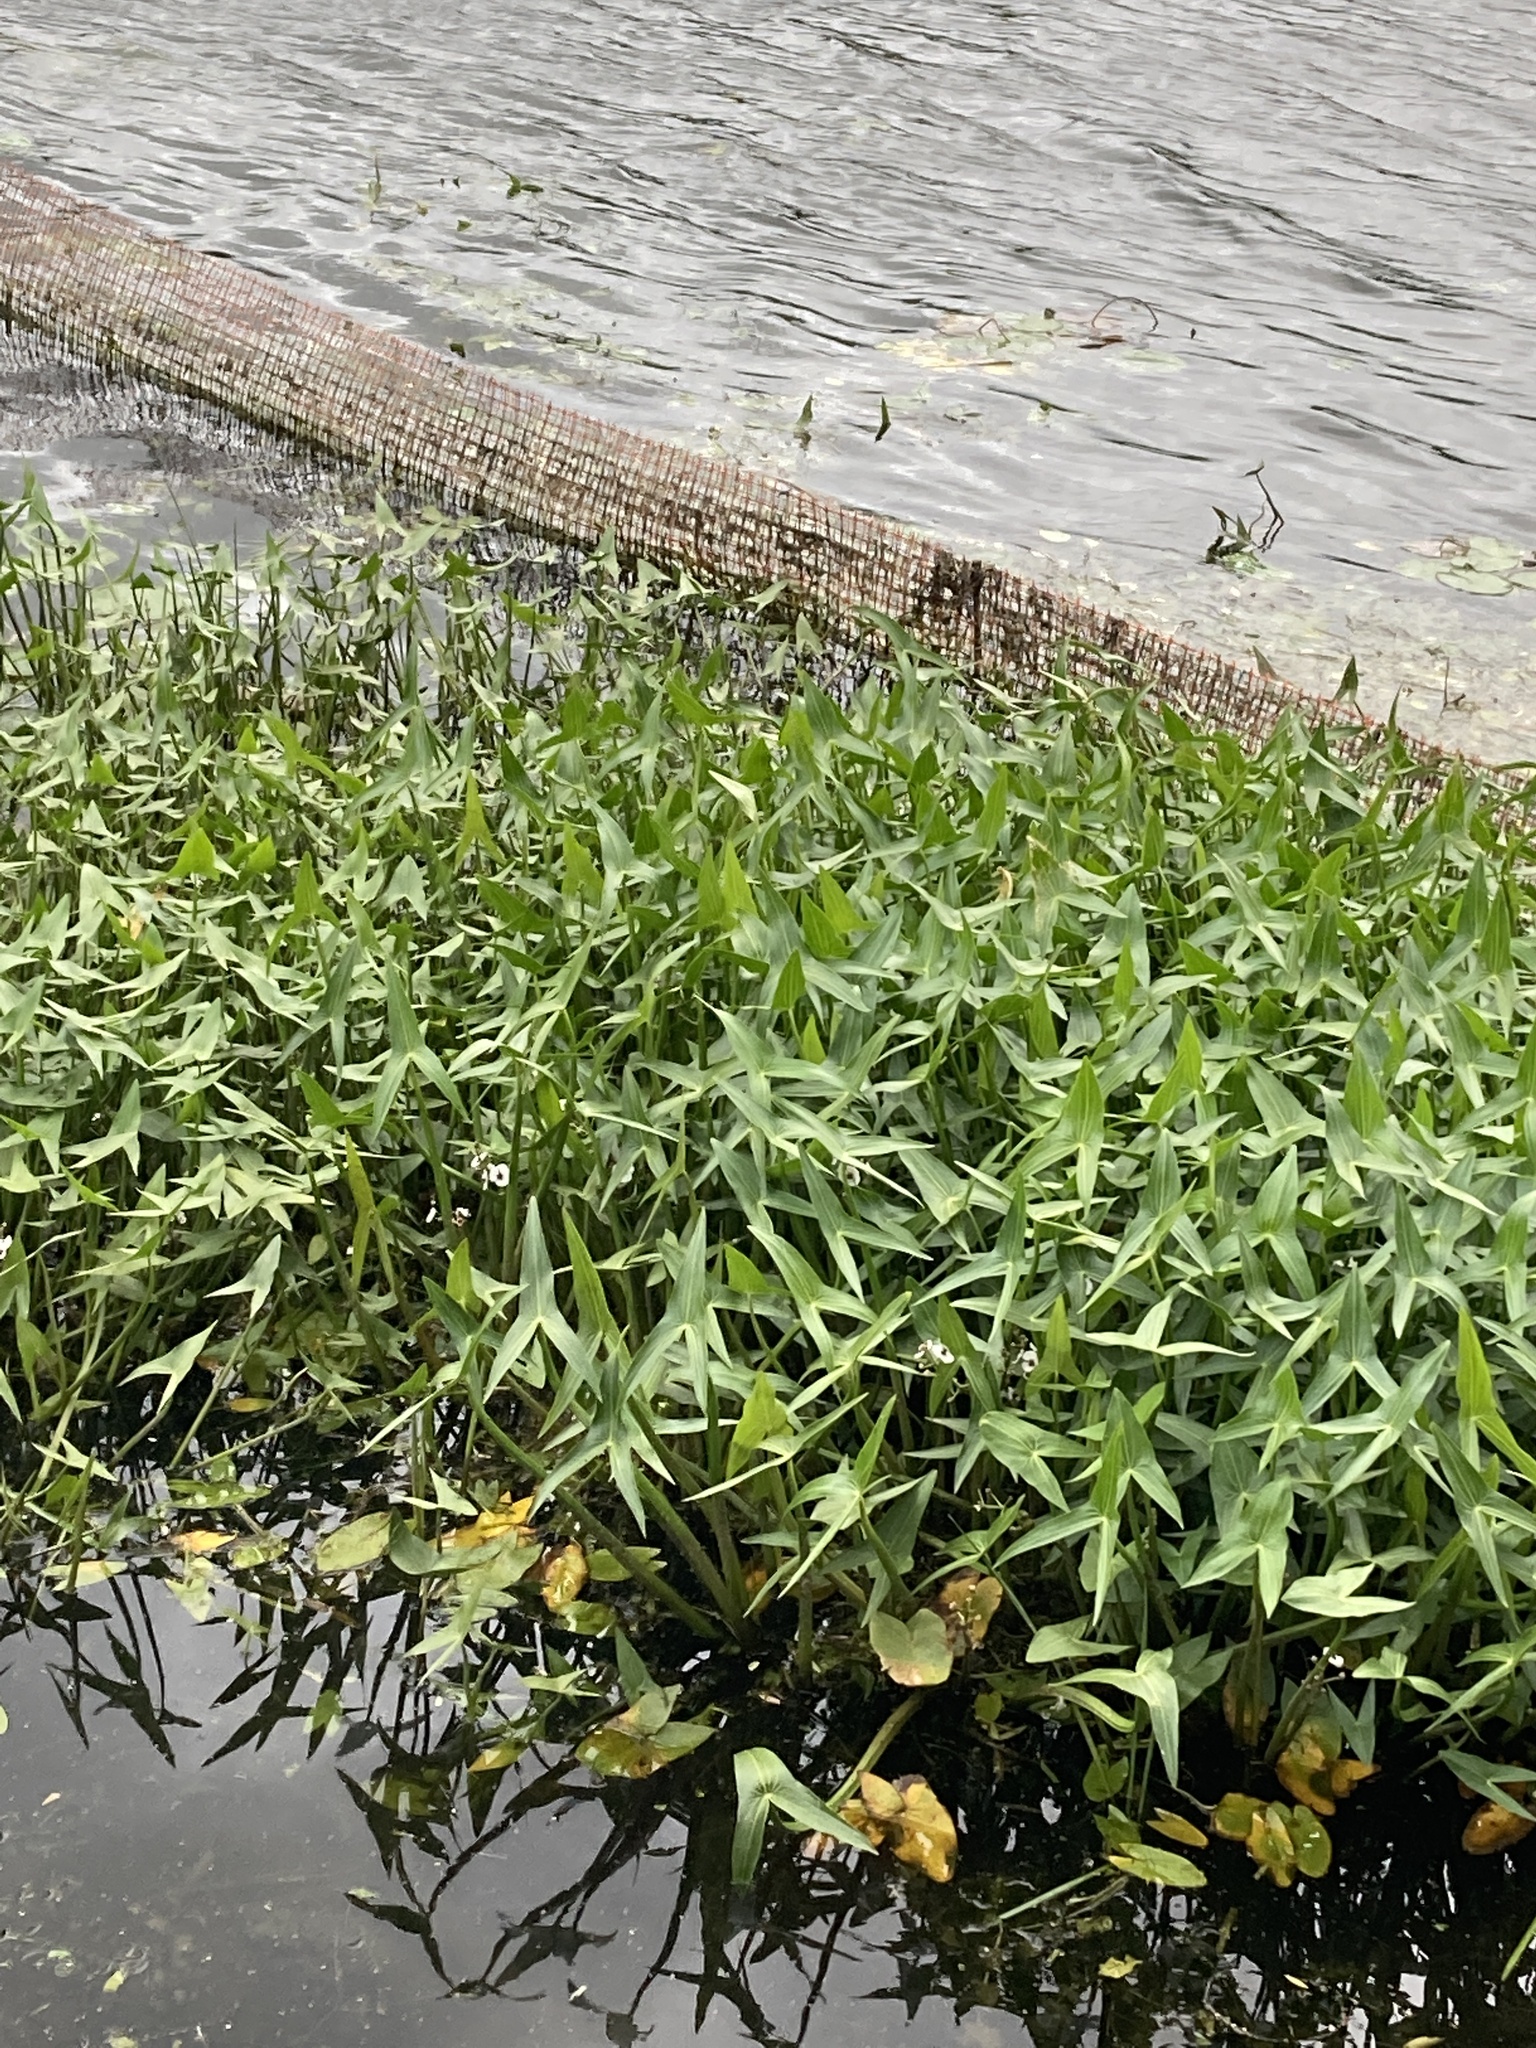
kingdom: Plantae
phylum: Tracheophyta
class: Liliopsida
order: Alismatales
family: Alismataceae
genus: Sagittaria
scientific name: Sagittaria sagittifolia
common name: Arrowhead
